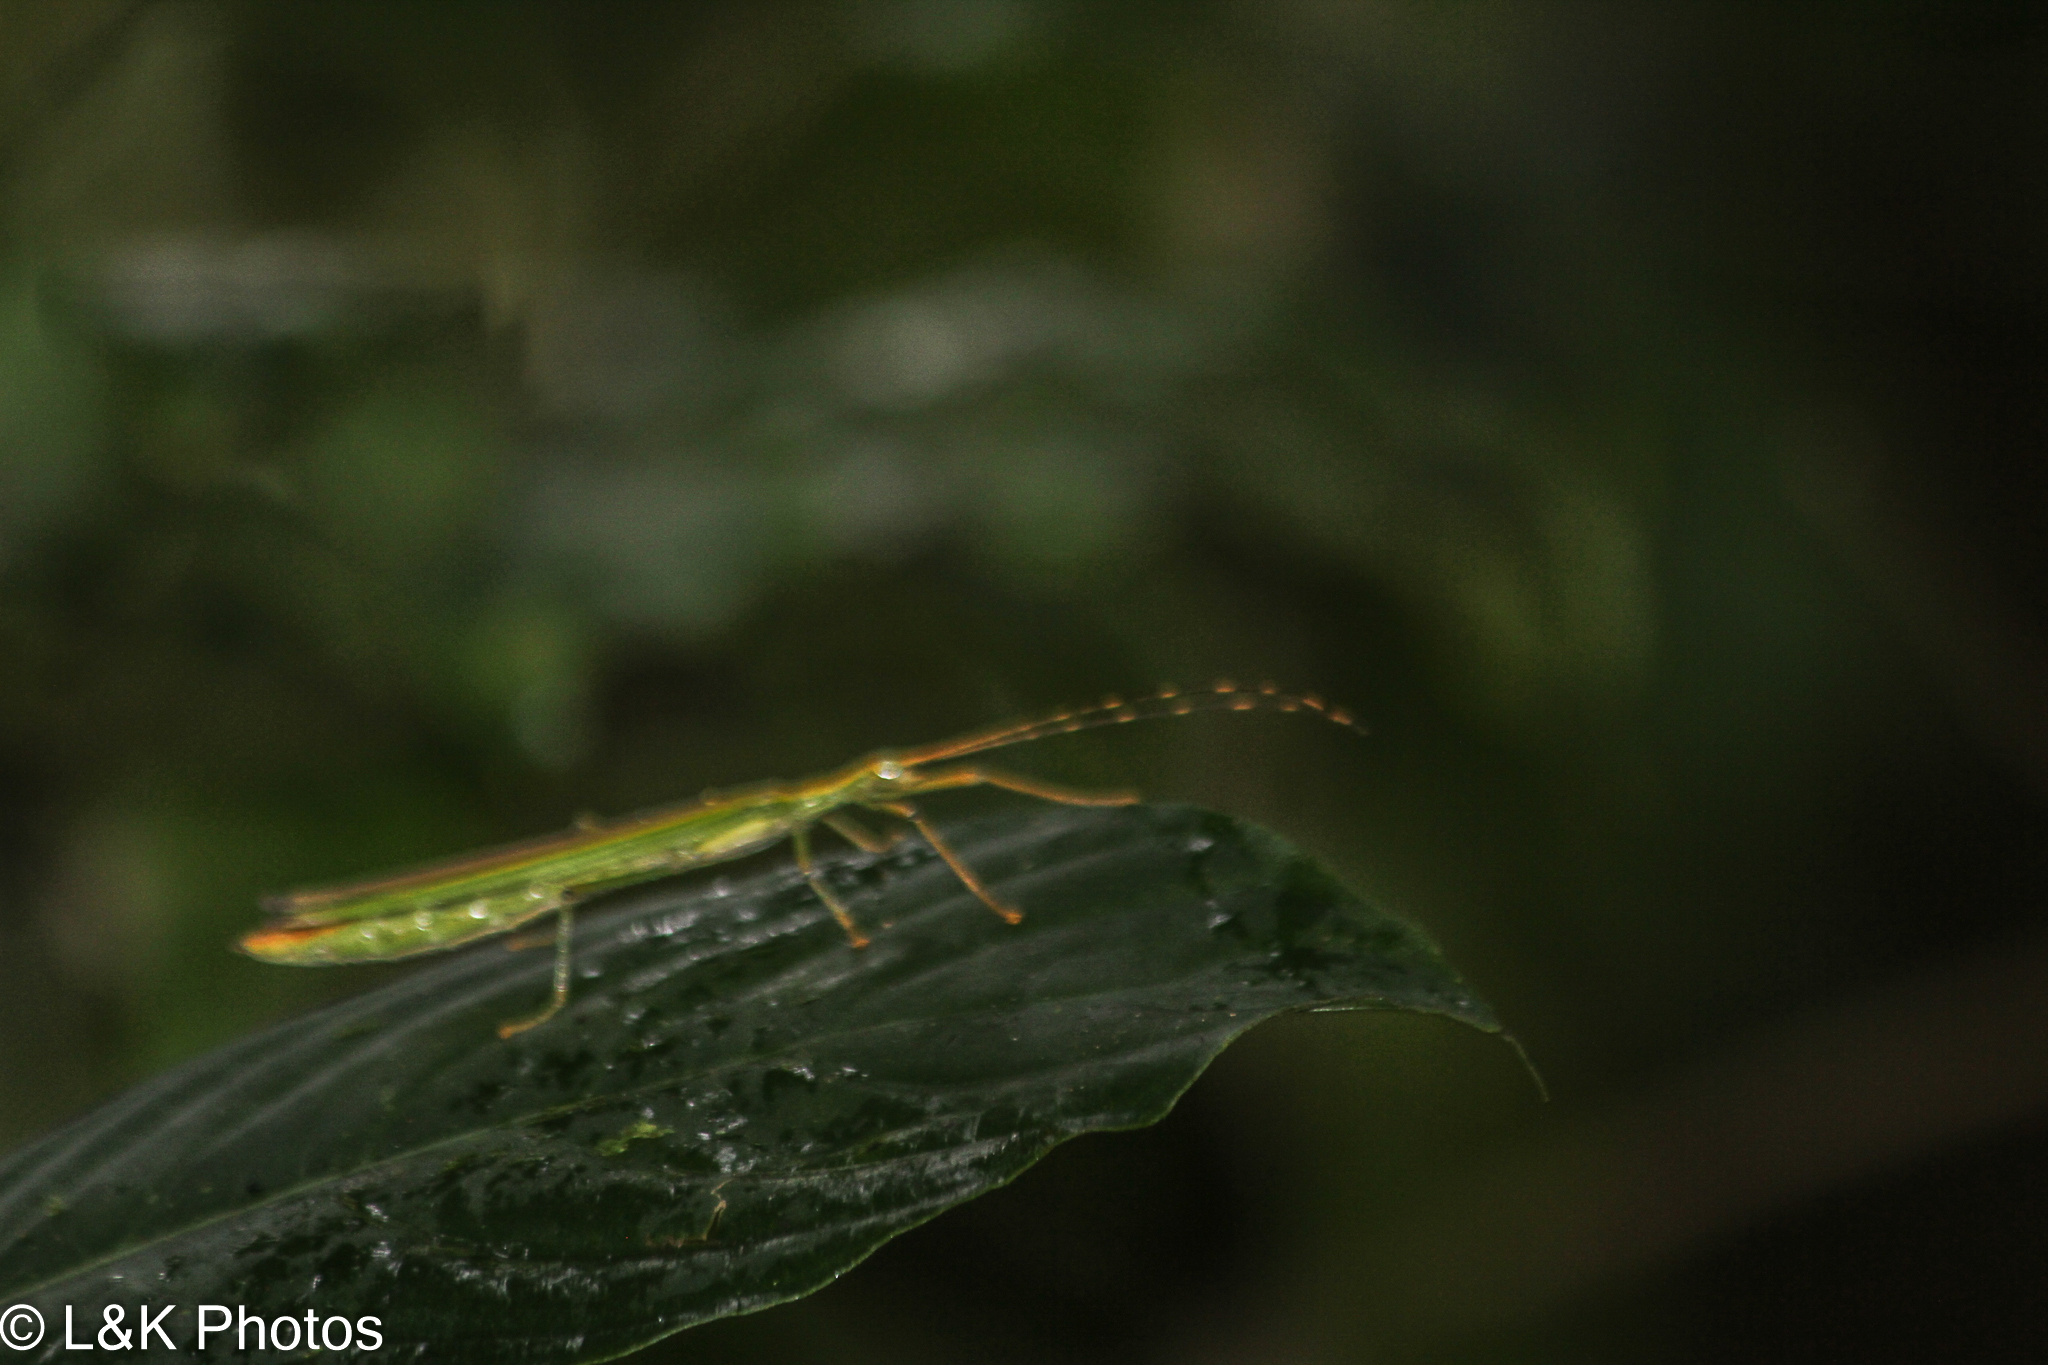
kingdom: Animalia
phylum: Arthropoda
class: Insecta
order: Phasmida
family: Pseudophasmatidae
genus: Anthericonia
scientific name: Anthericonia anketeschke
